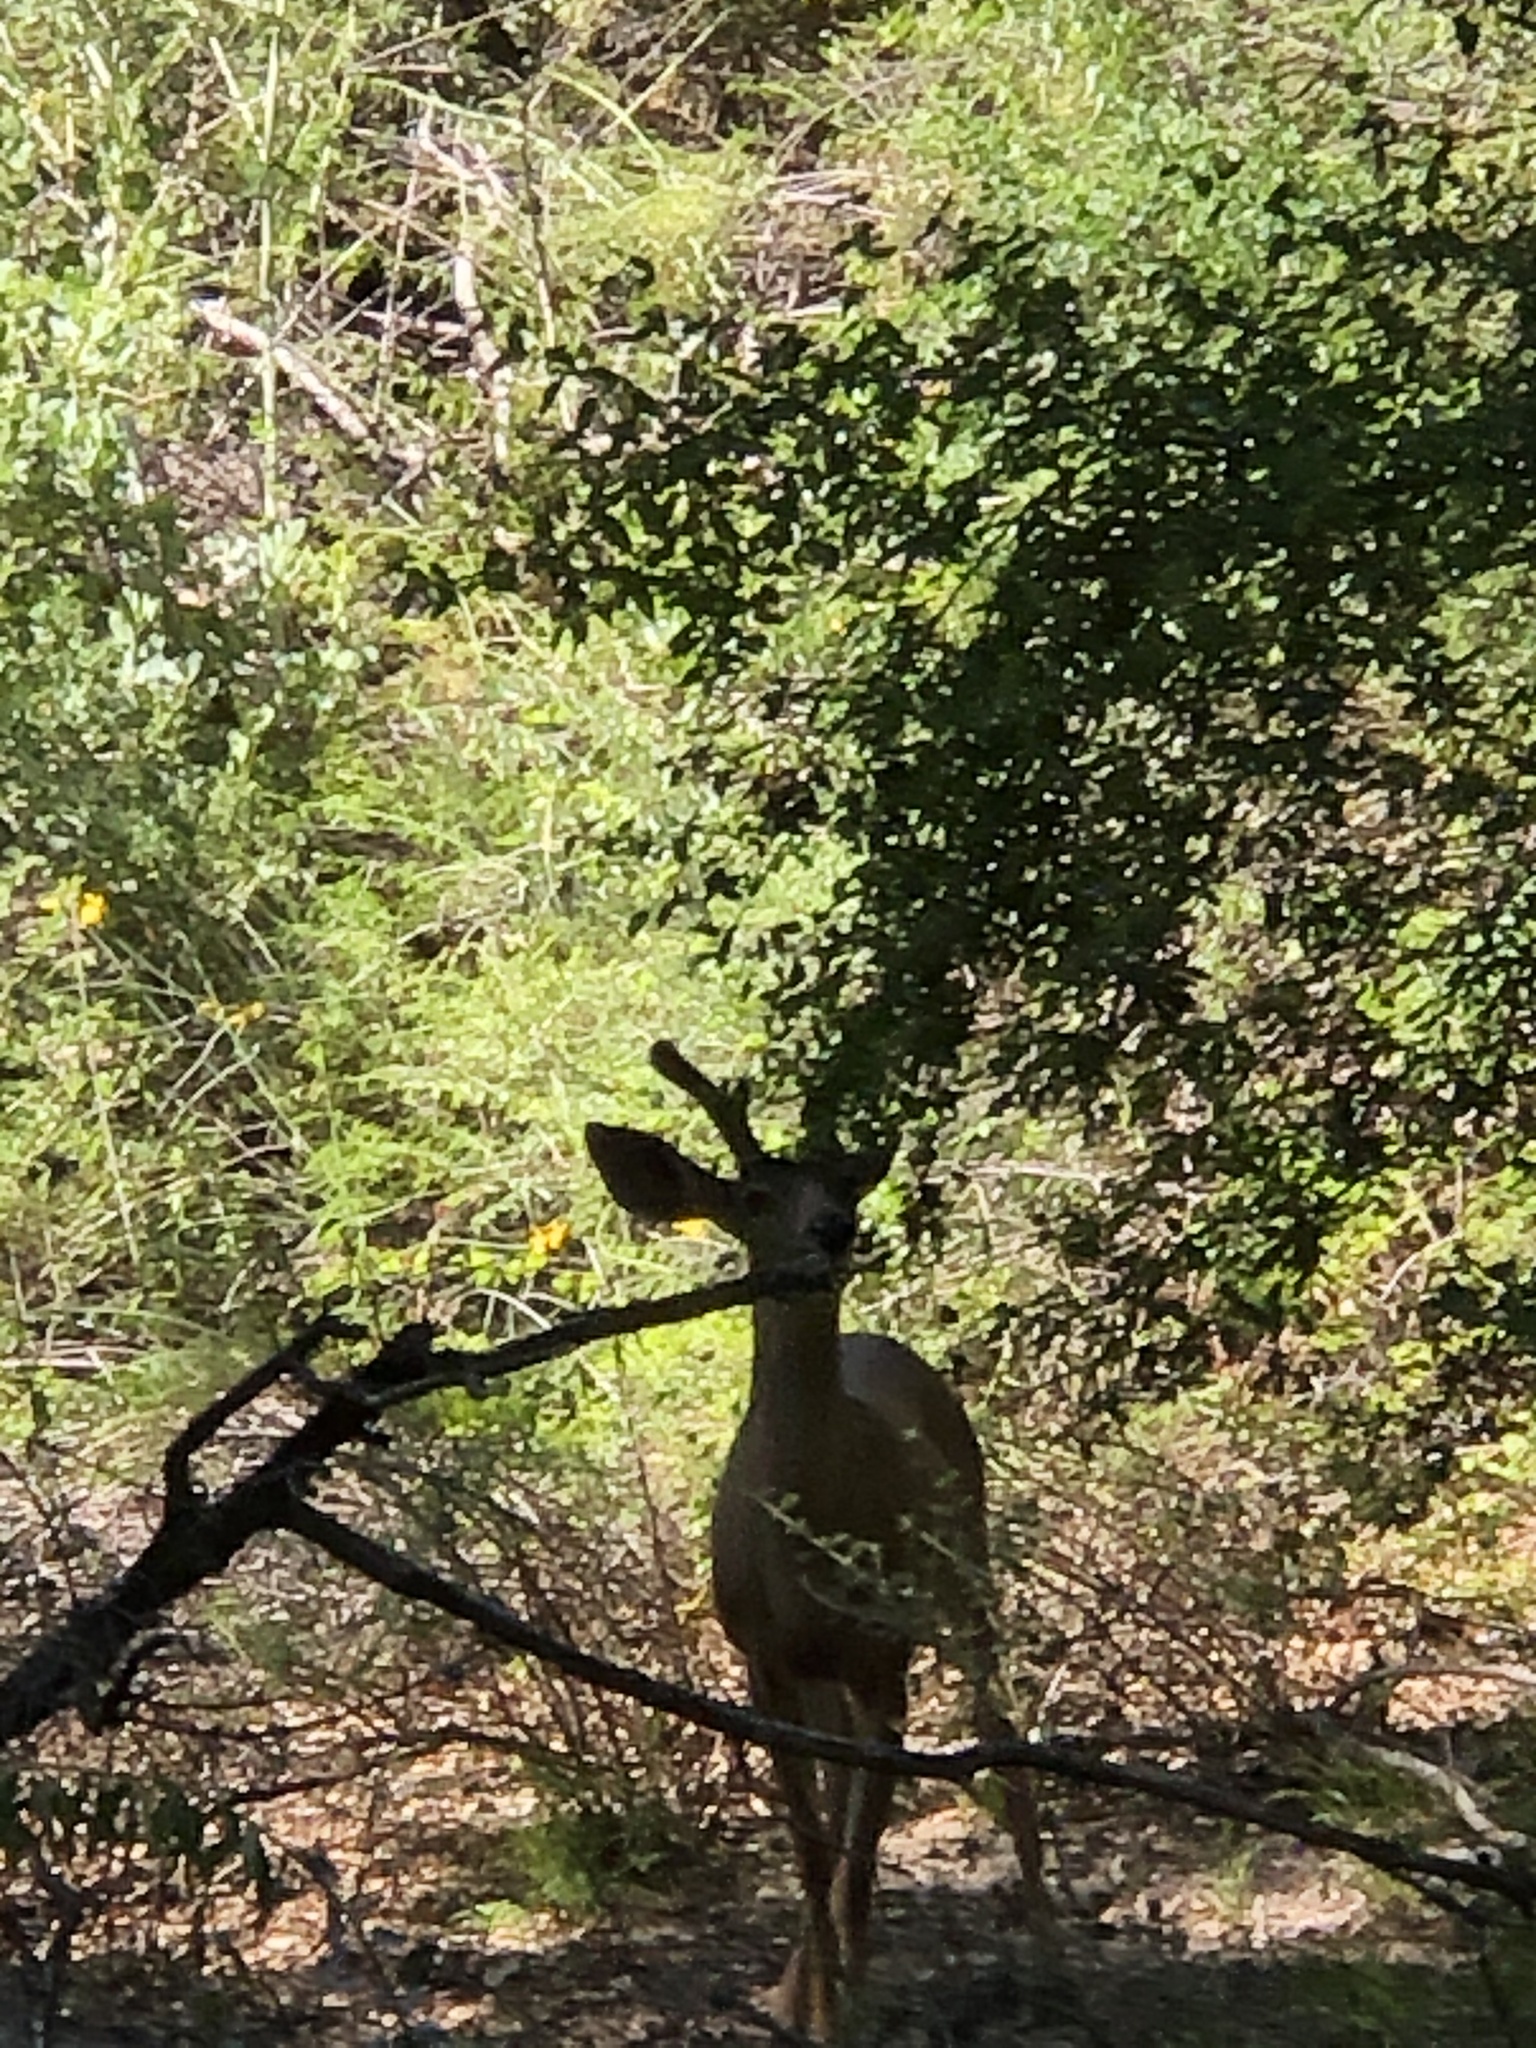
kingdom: Animalia
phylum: Chordata
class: Mammalia
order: Artiodactyla
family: Cervidae
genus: Odocoileus
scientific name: Odocoileus hemionus
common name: Mule deer
